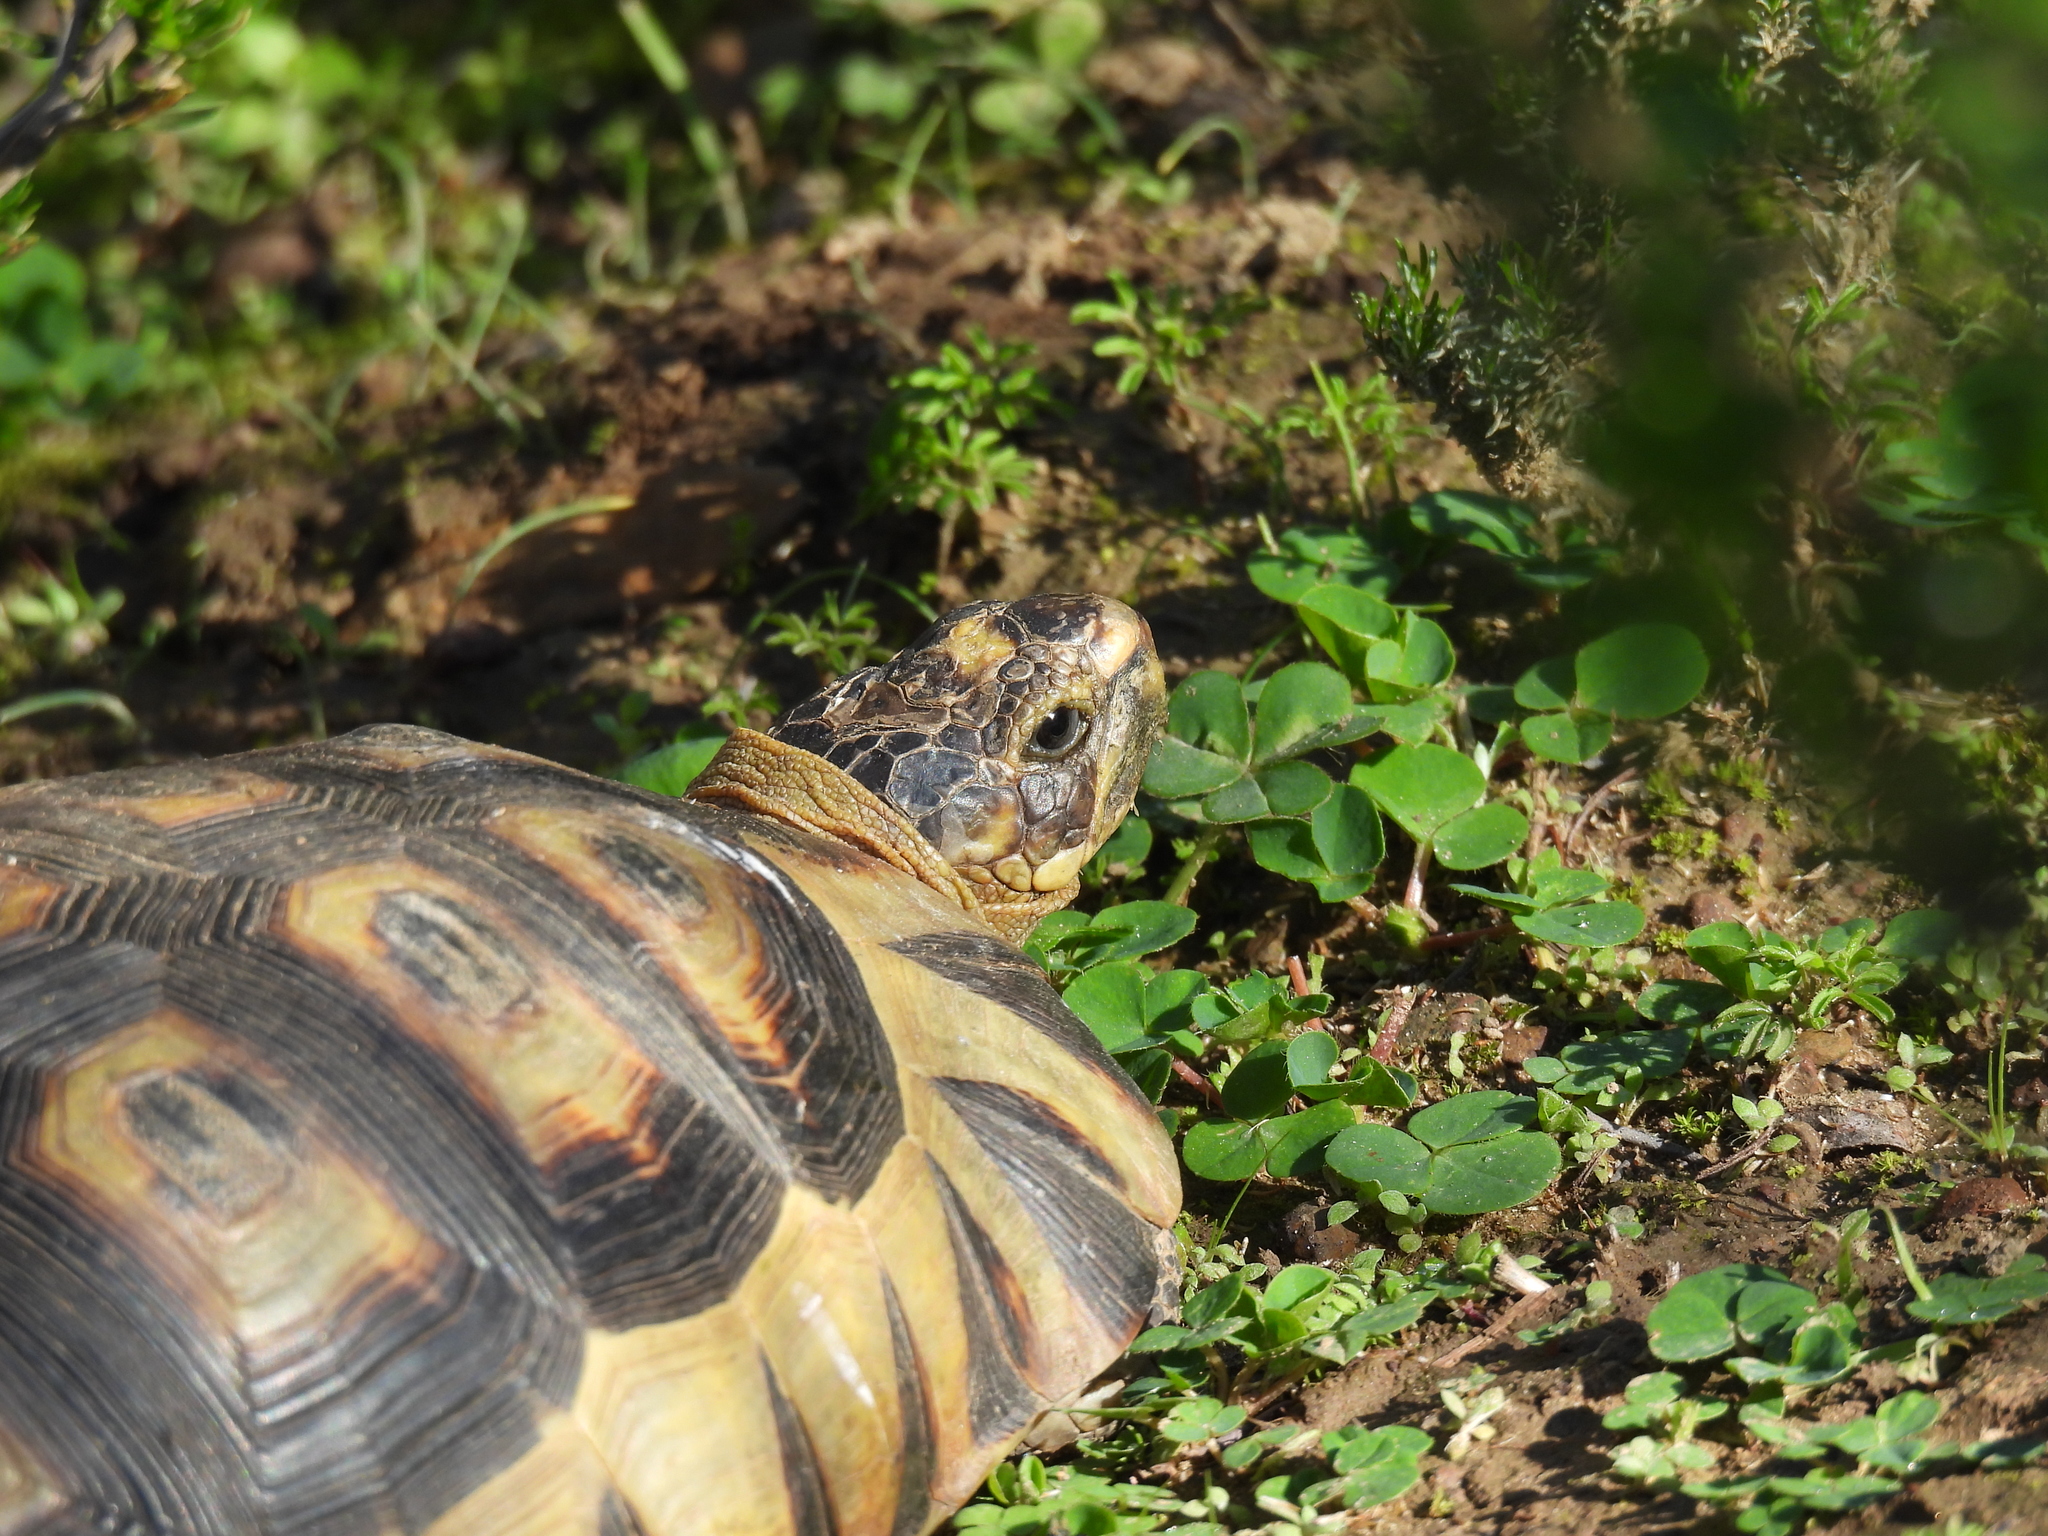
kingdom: Animalia
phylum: Chordata
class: Testudines
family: Testudinidae
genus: Chersina
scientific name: Chersina angulata
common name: South african bowsprit tortoise
